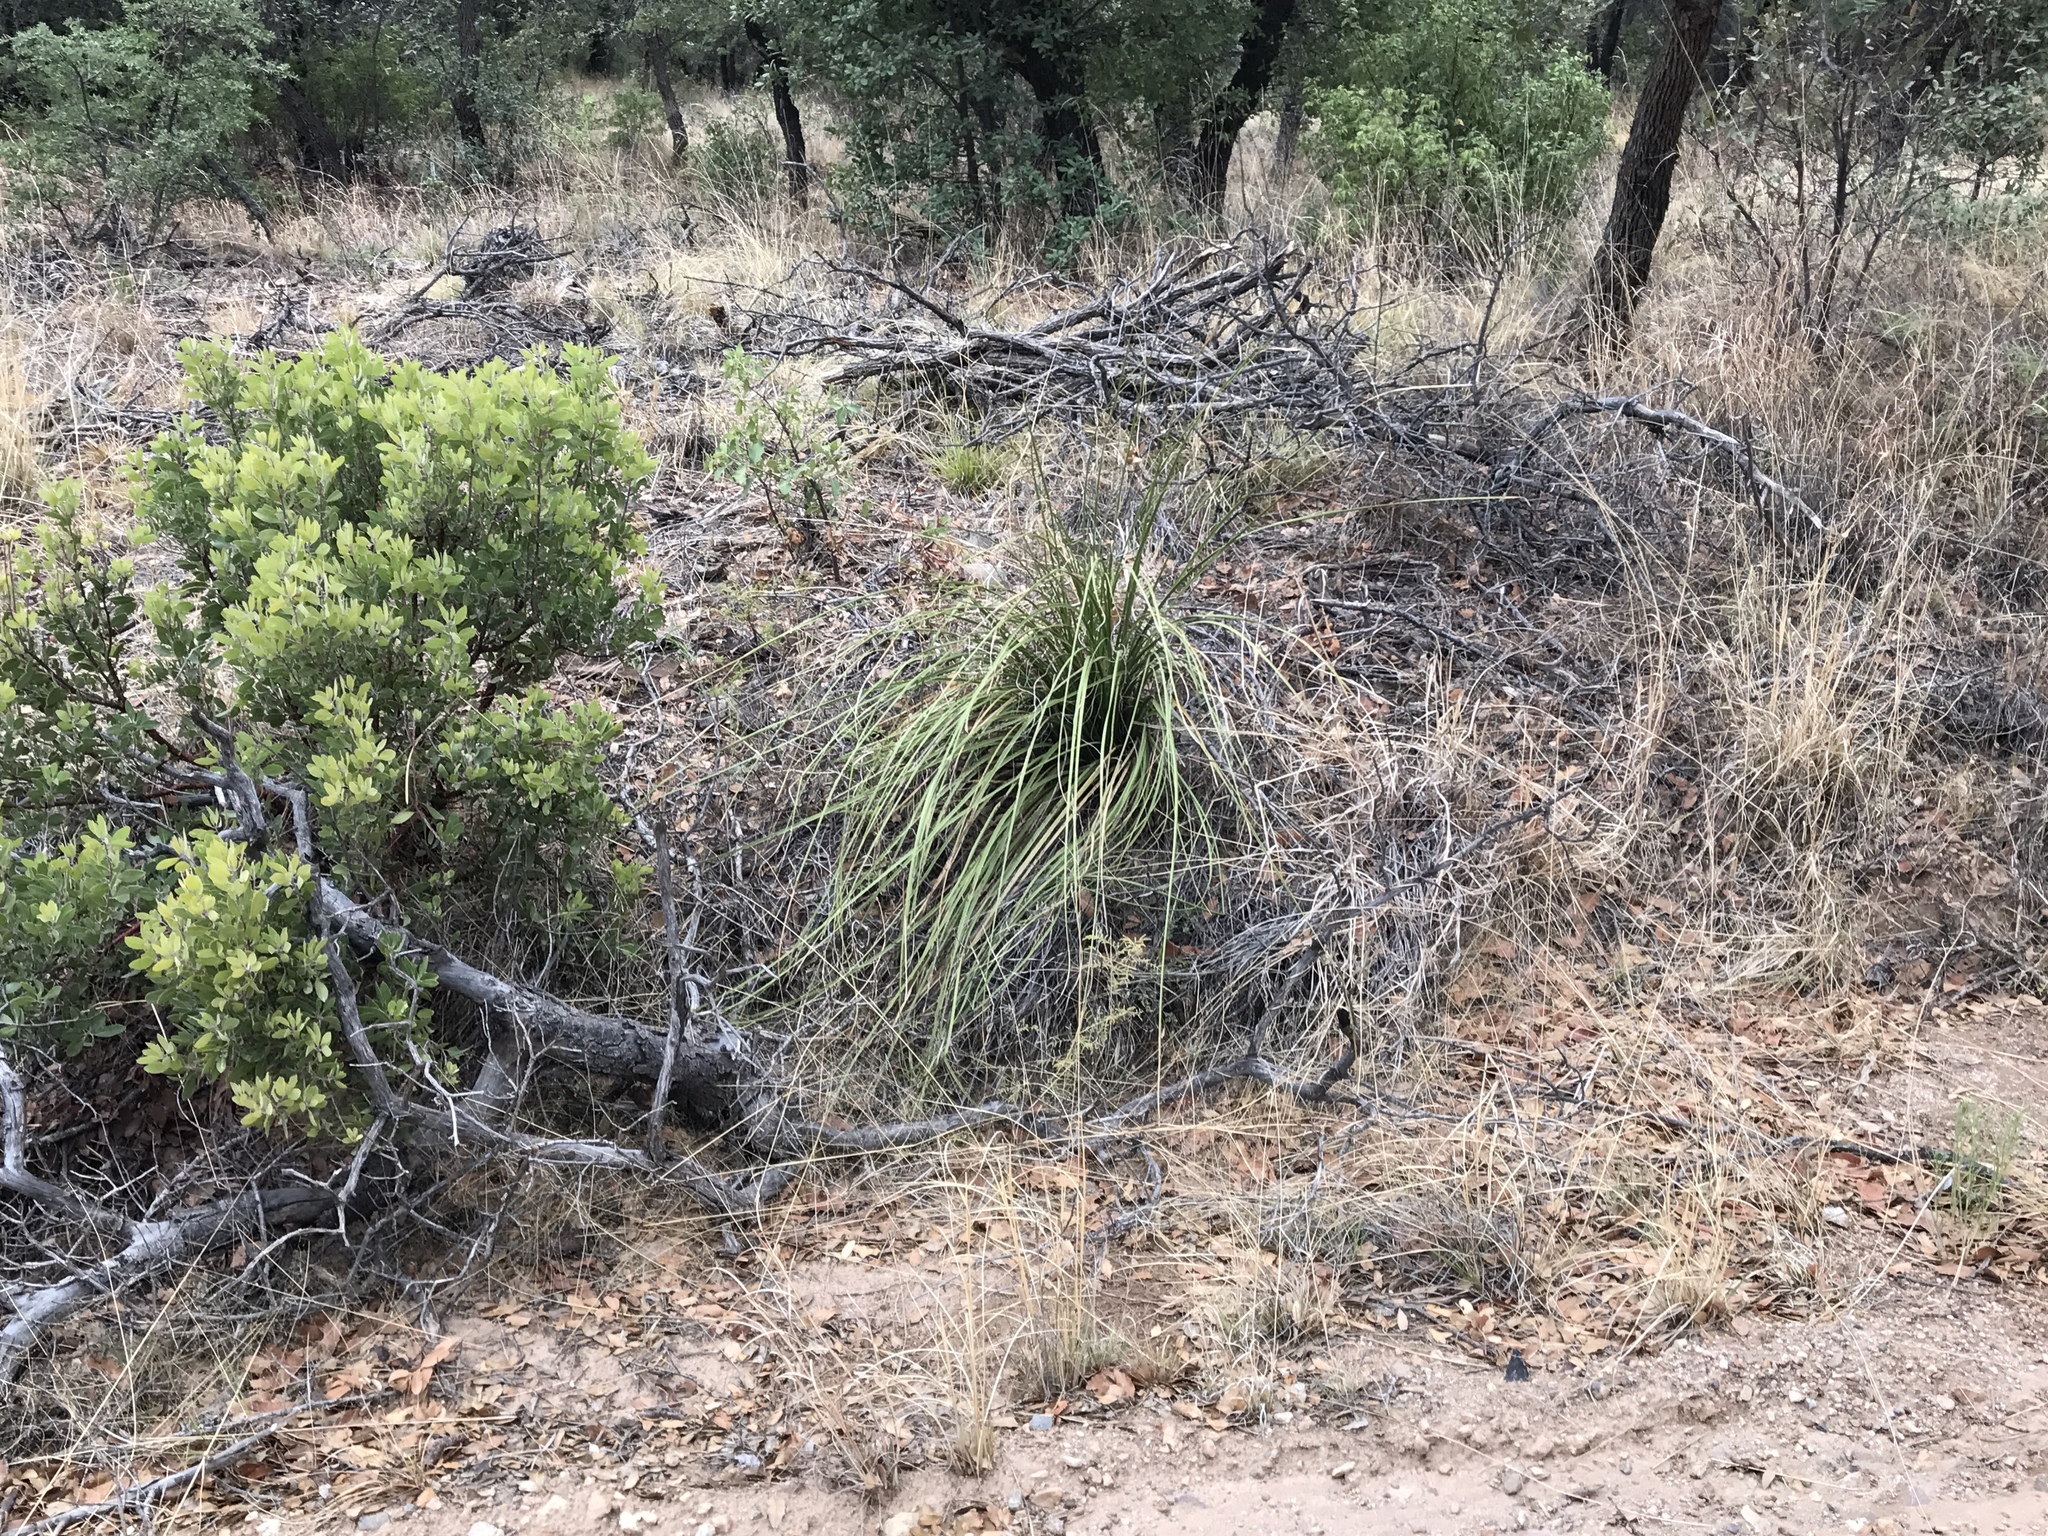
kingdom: Plantae
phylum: Tracheophyta
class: Liliopsida
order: Asparagales
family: Asparagaceae
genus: Nolina
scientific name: Nolina microcarpa
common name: Bear-grass
